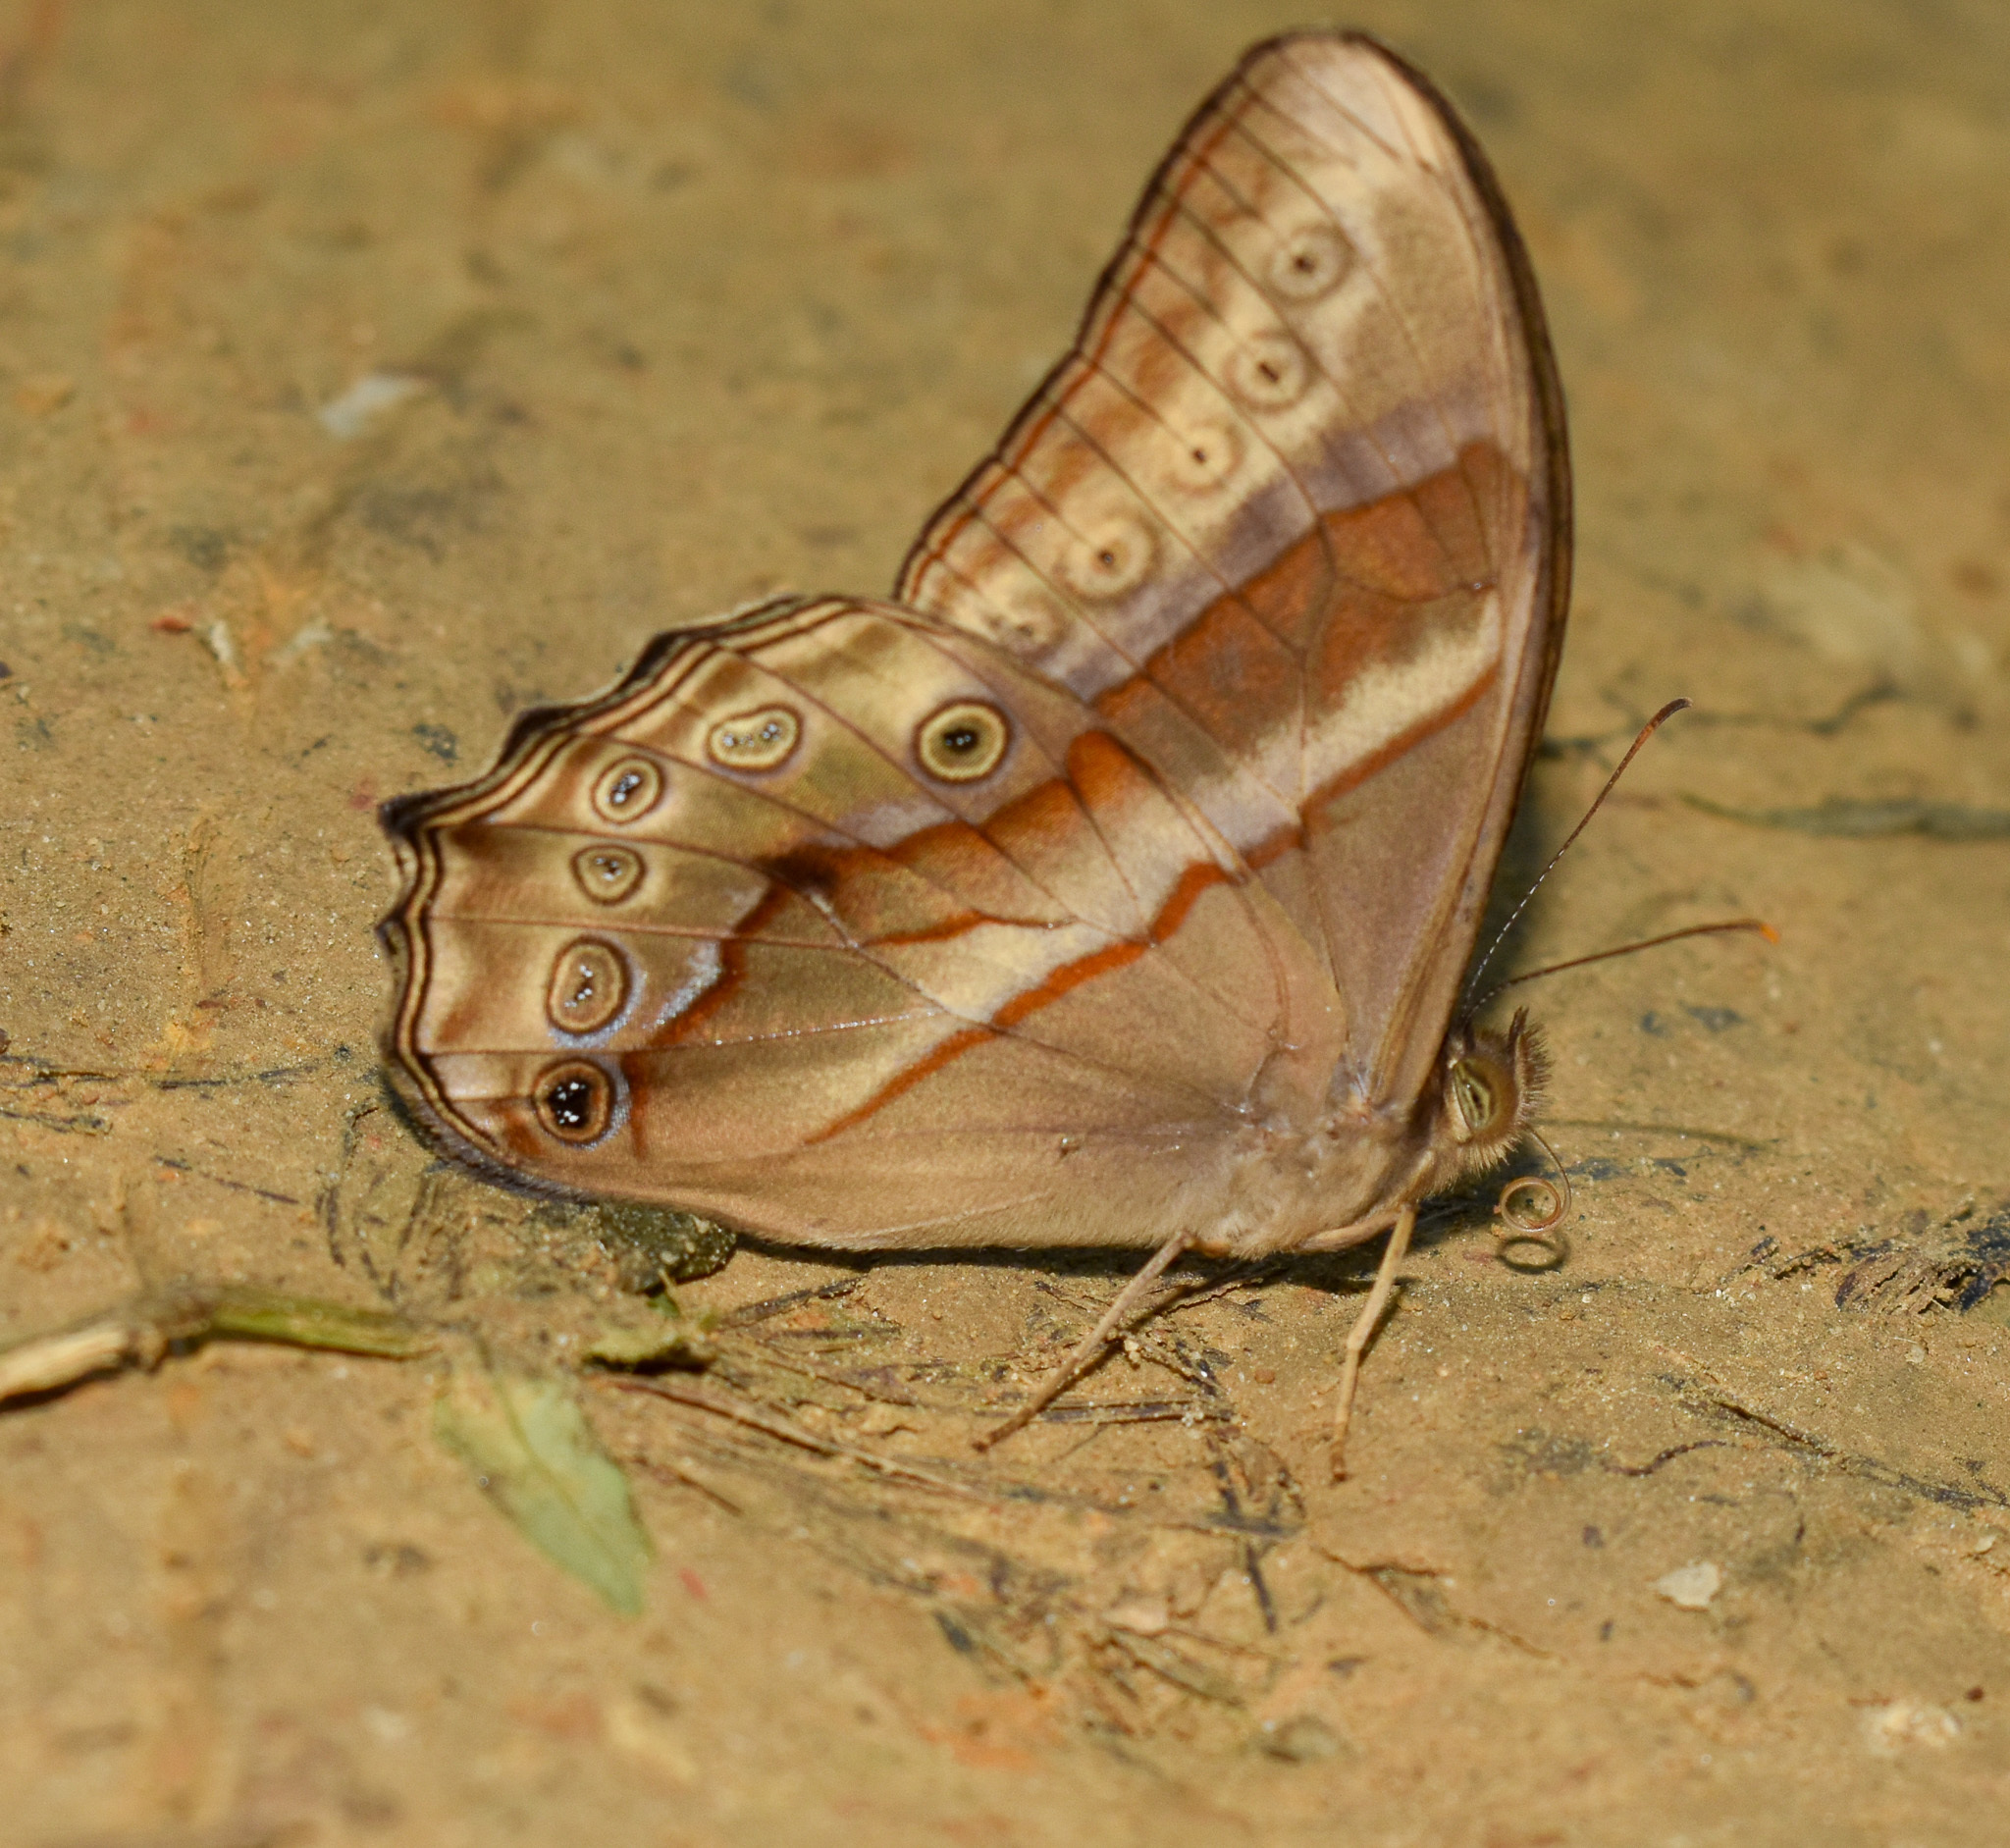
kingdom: Animalia
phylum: Arthropoda
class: Insecta
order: Lepidoptera
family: Nymphalidae
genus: Lethe
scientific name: Lethe mekara
